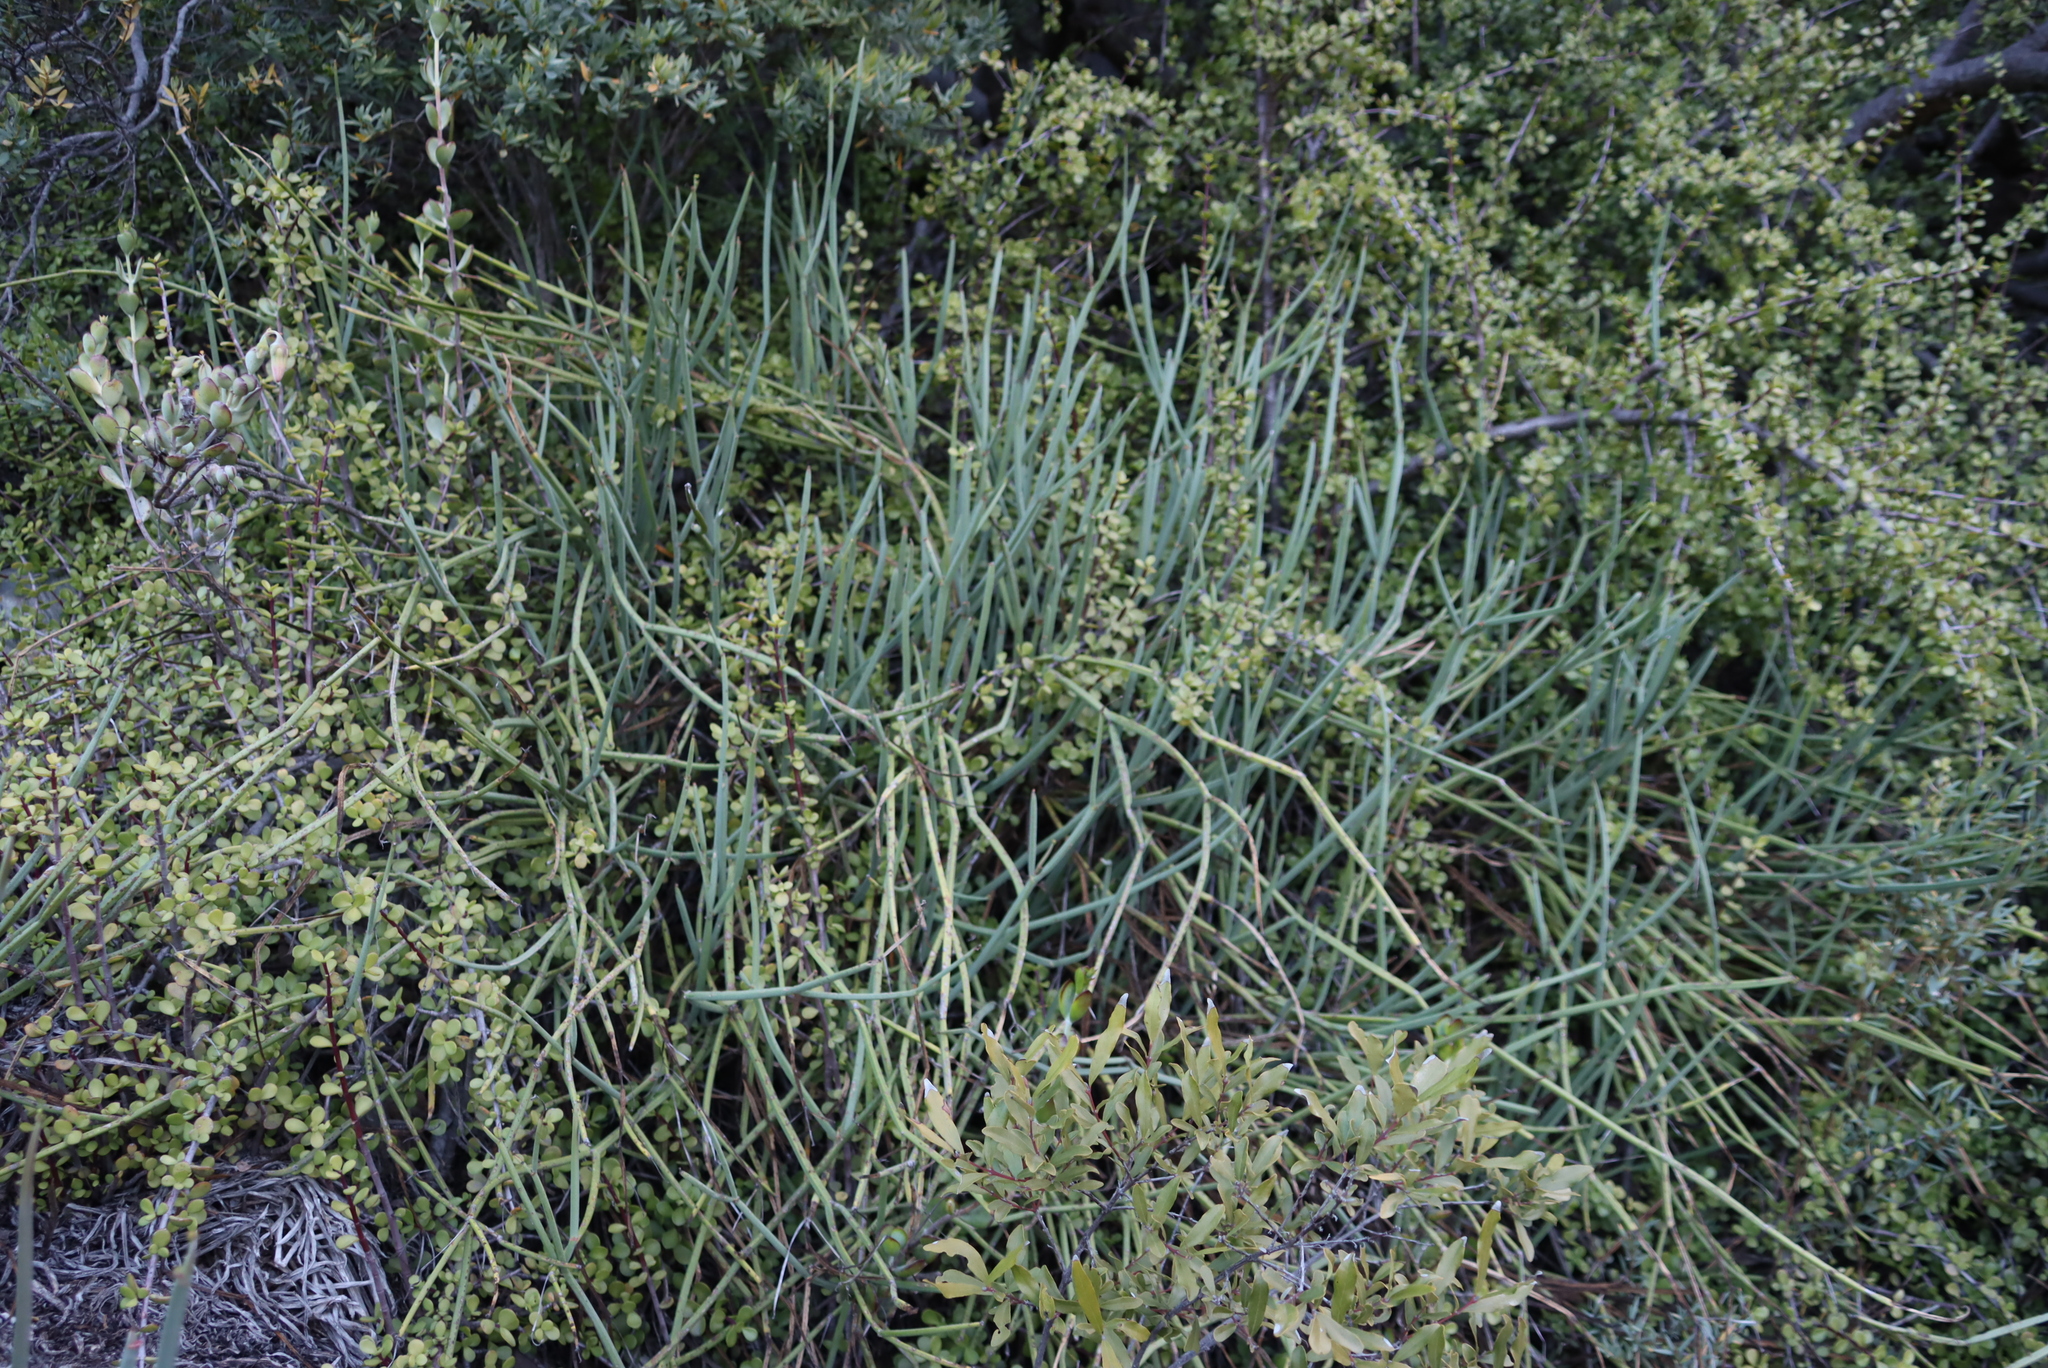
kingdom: Plantae
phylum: Tracheophyta
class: Magnoliopsida
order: Gentianales
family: Apocynaceae
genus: Cynanchum
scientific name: Cynanchum viminale
